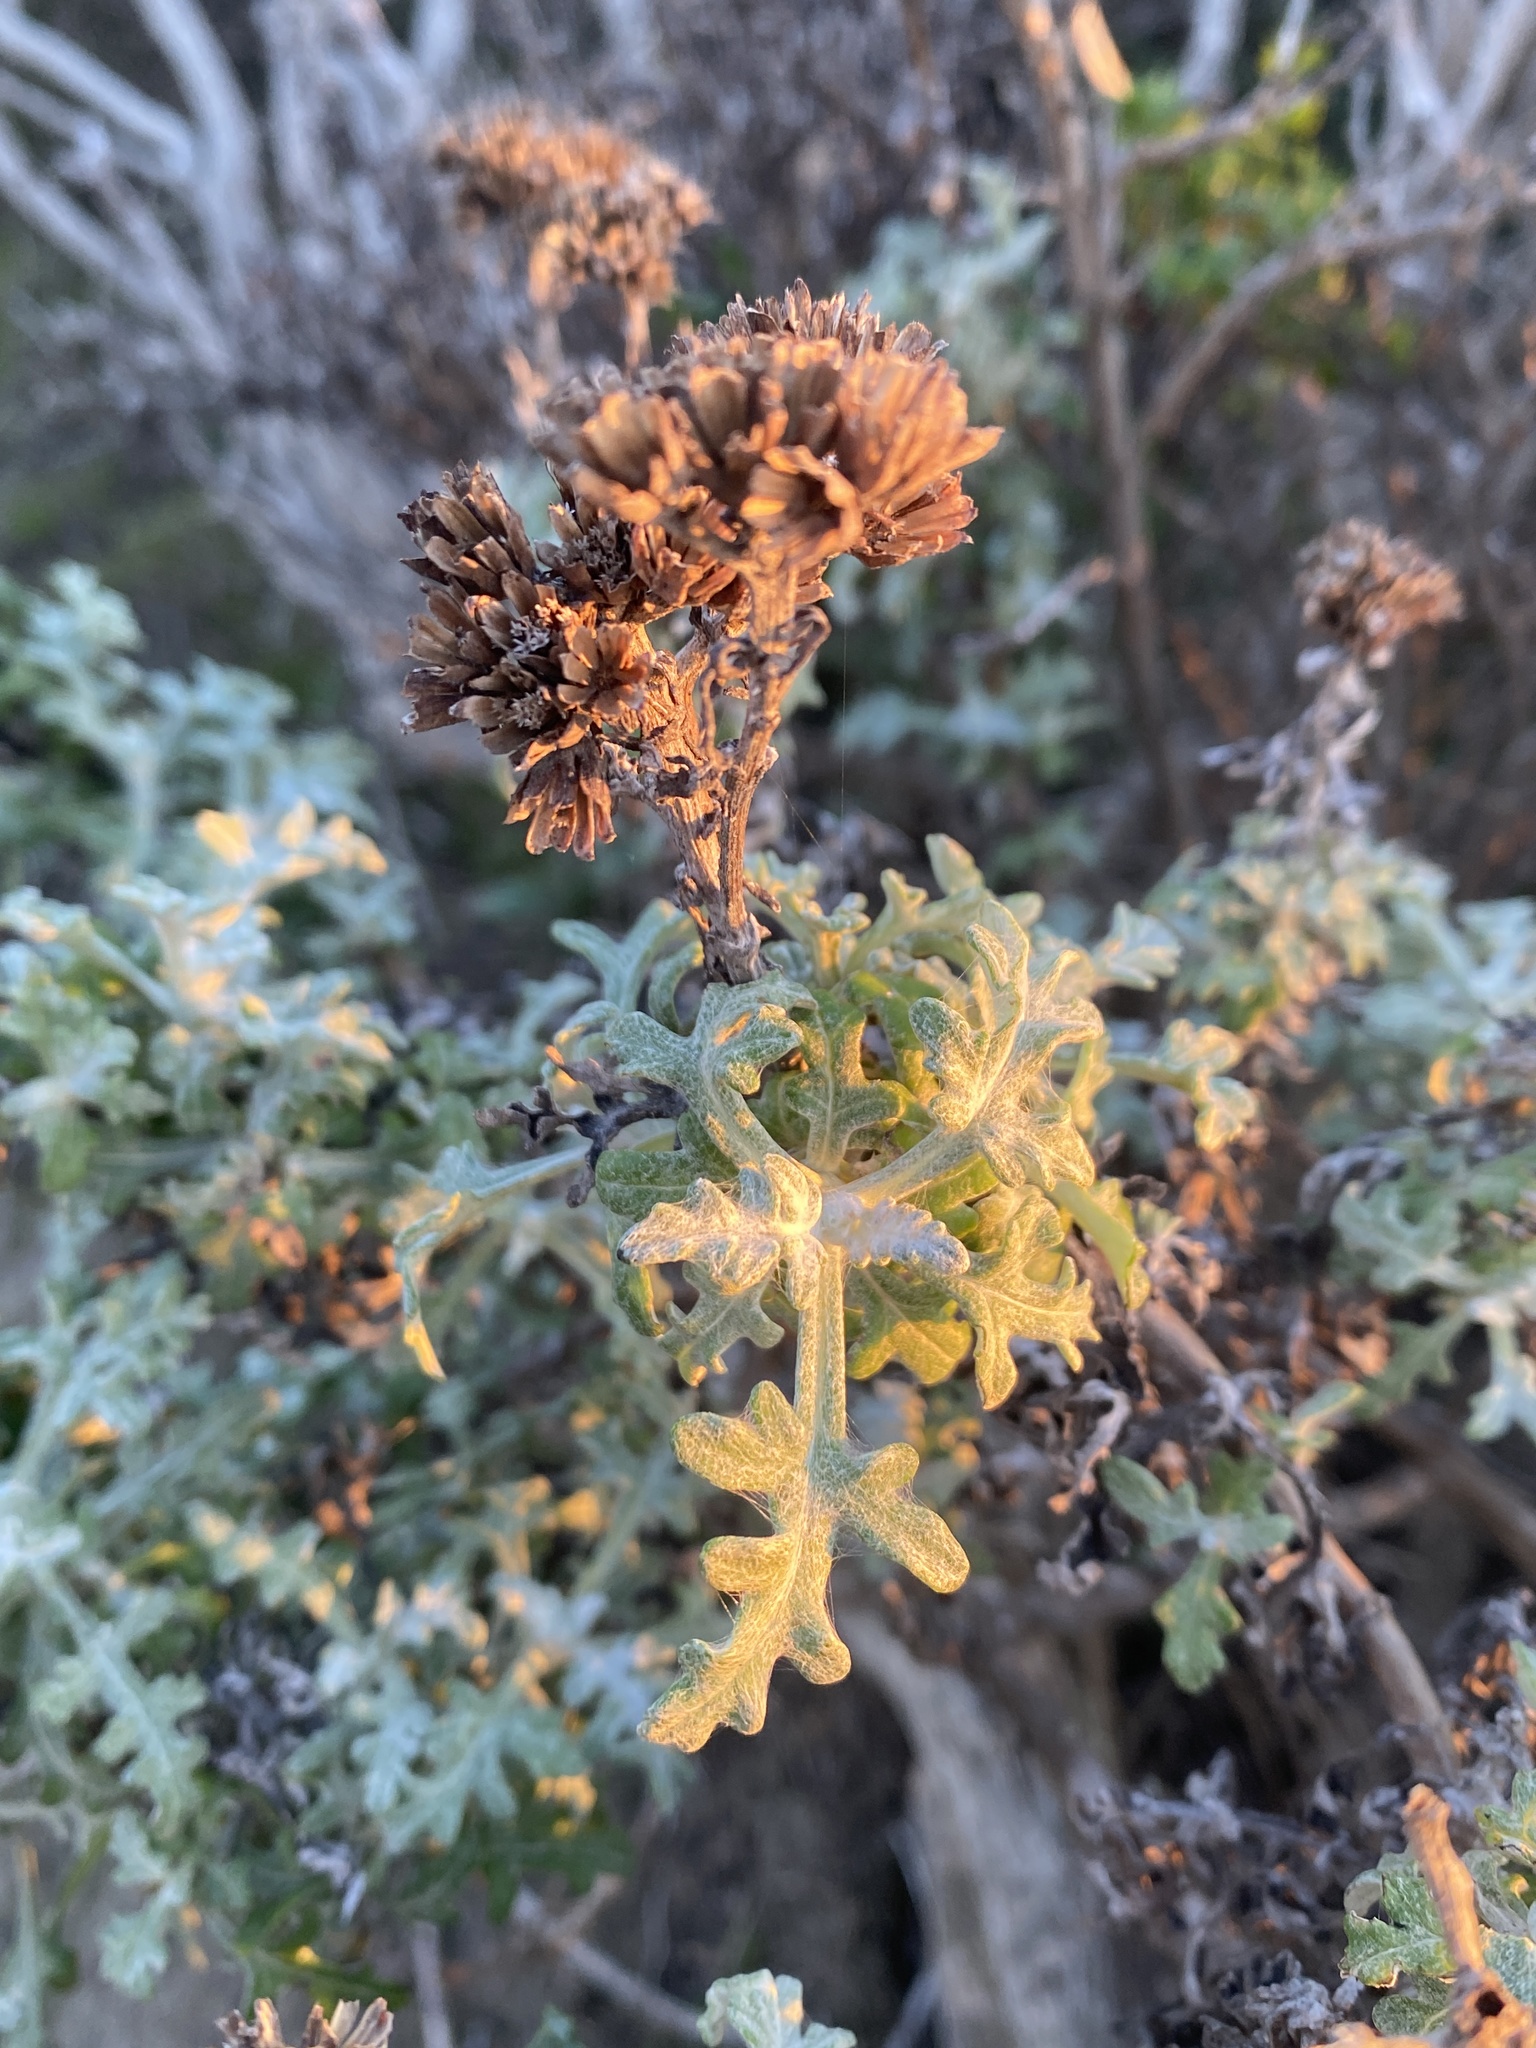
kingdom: Plantae
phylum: Tracheophyta
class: Magnoliopsida
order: Asterales
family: Asteraceae
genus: Eriophyllum
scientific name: Eriophyllum staechadifolium
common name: Lizardtail
